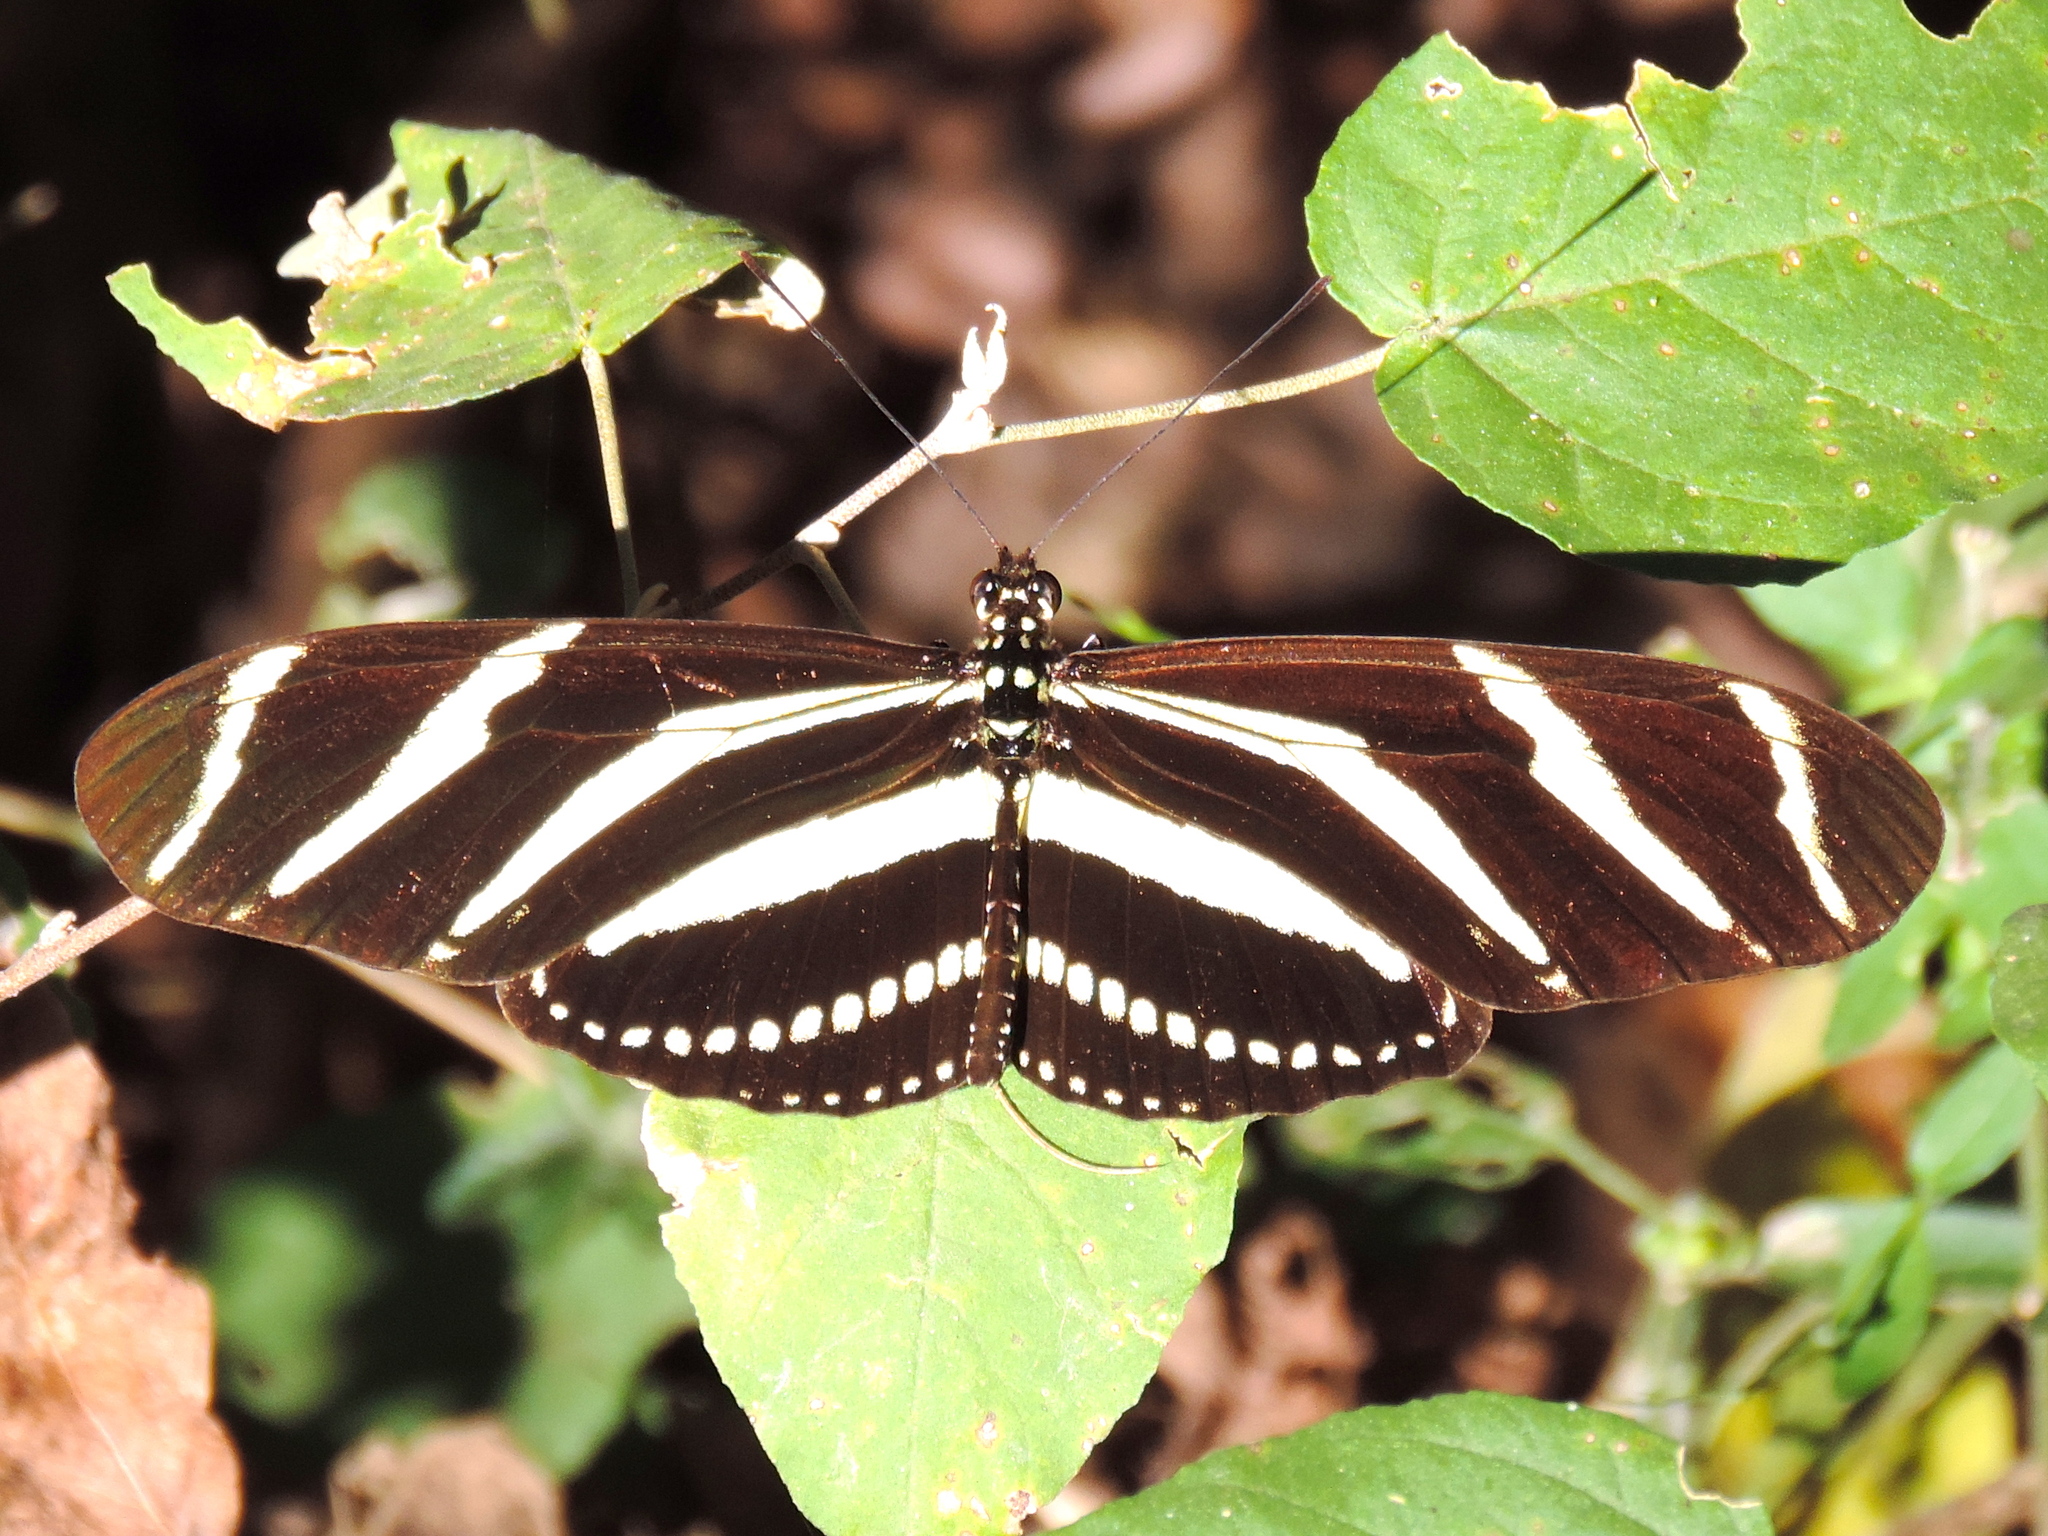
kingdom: Animalia
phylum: Arthropoda
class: Insecta
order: Lepidoptera
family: Nymphalidae
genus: Heliconius
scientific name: Heliconius charithonia
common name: Zebra long wing
